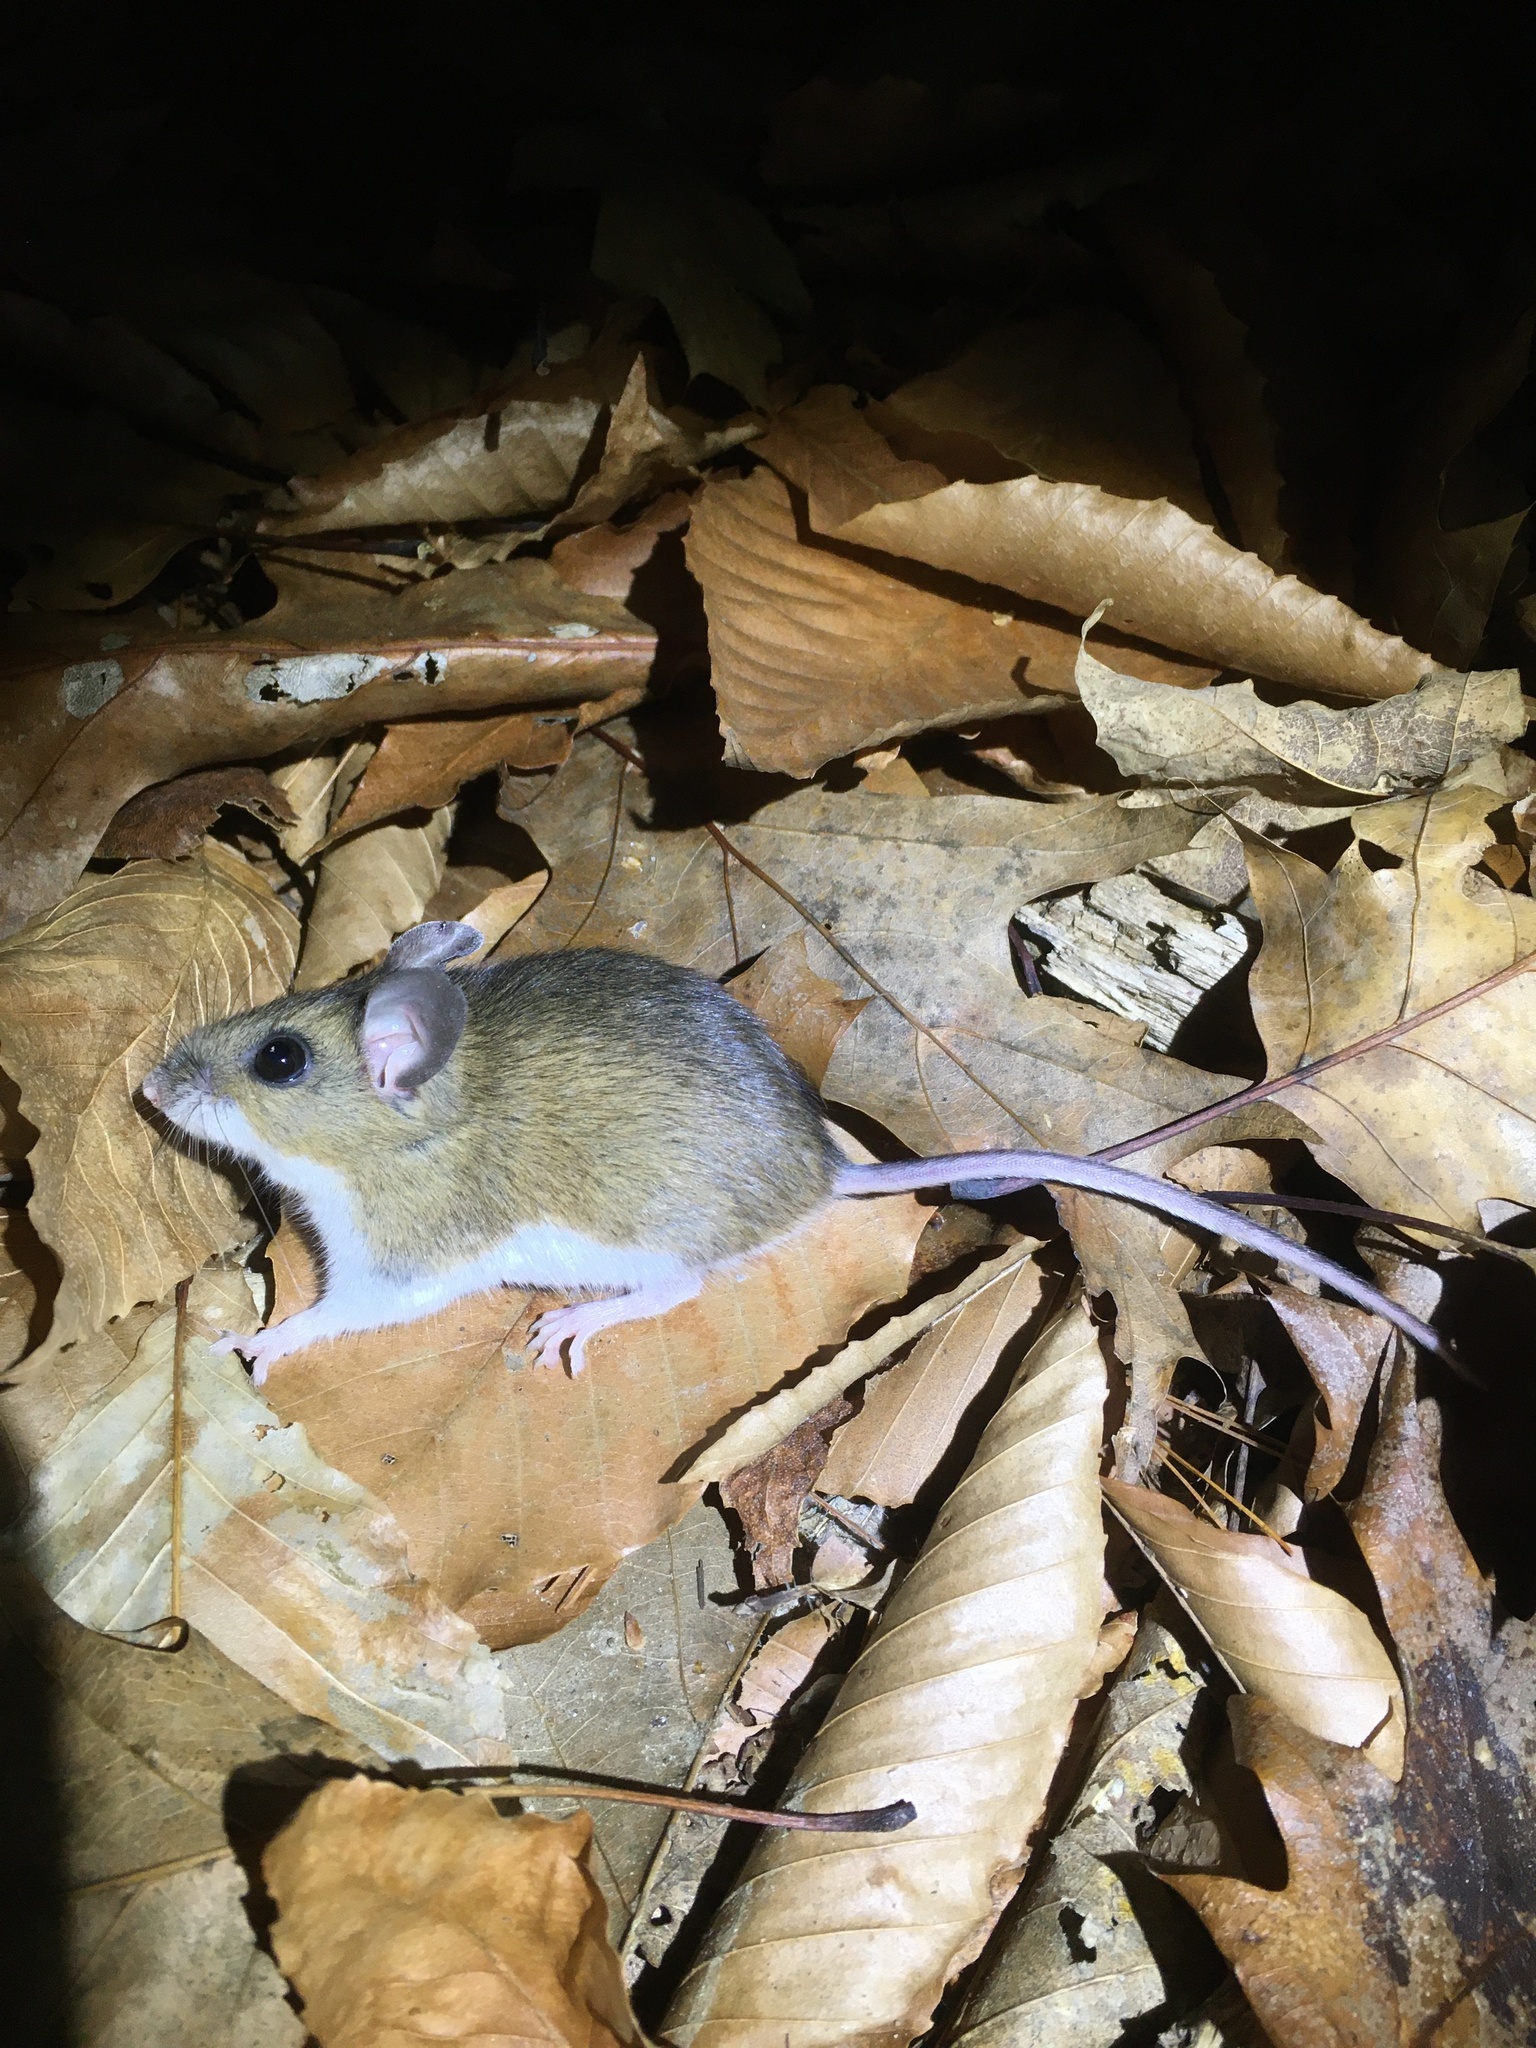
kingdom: Animalia
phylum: Chordata
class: Mammalia
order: Rodentia
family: Cricetidae
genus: Peromyscus
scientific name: Peromyscus leucopus
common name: White-footed deermouse
